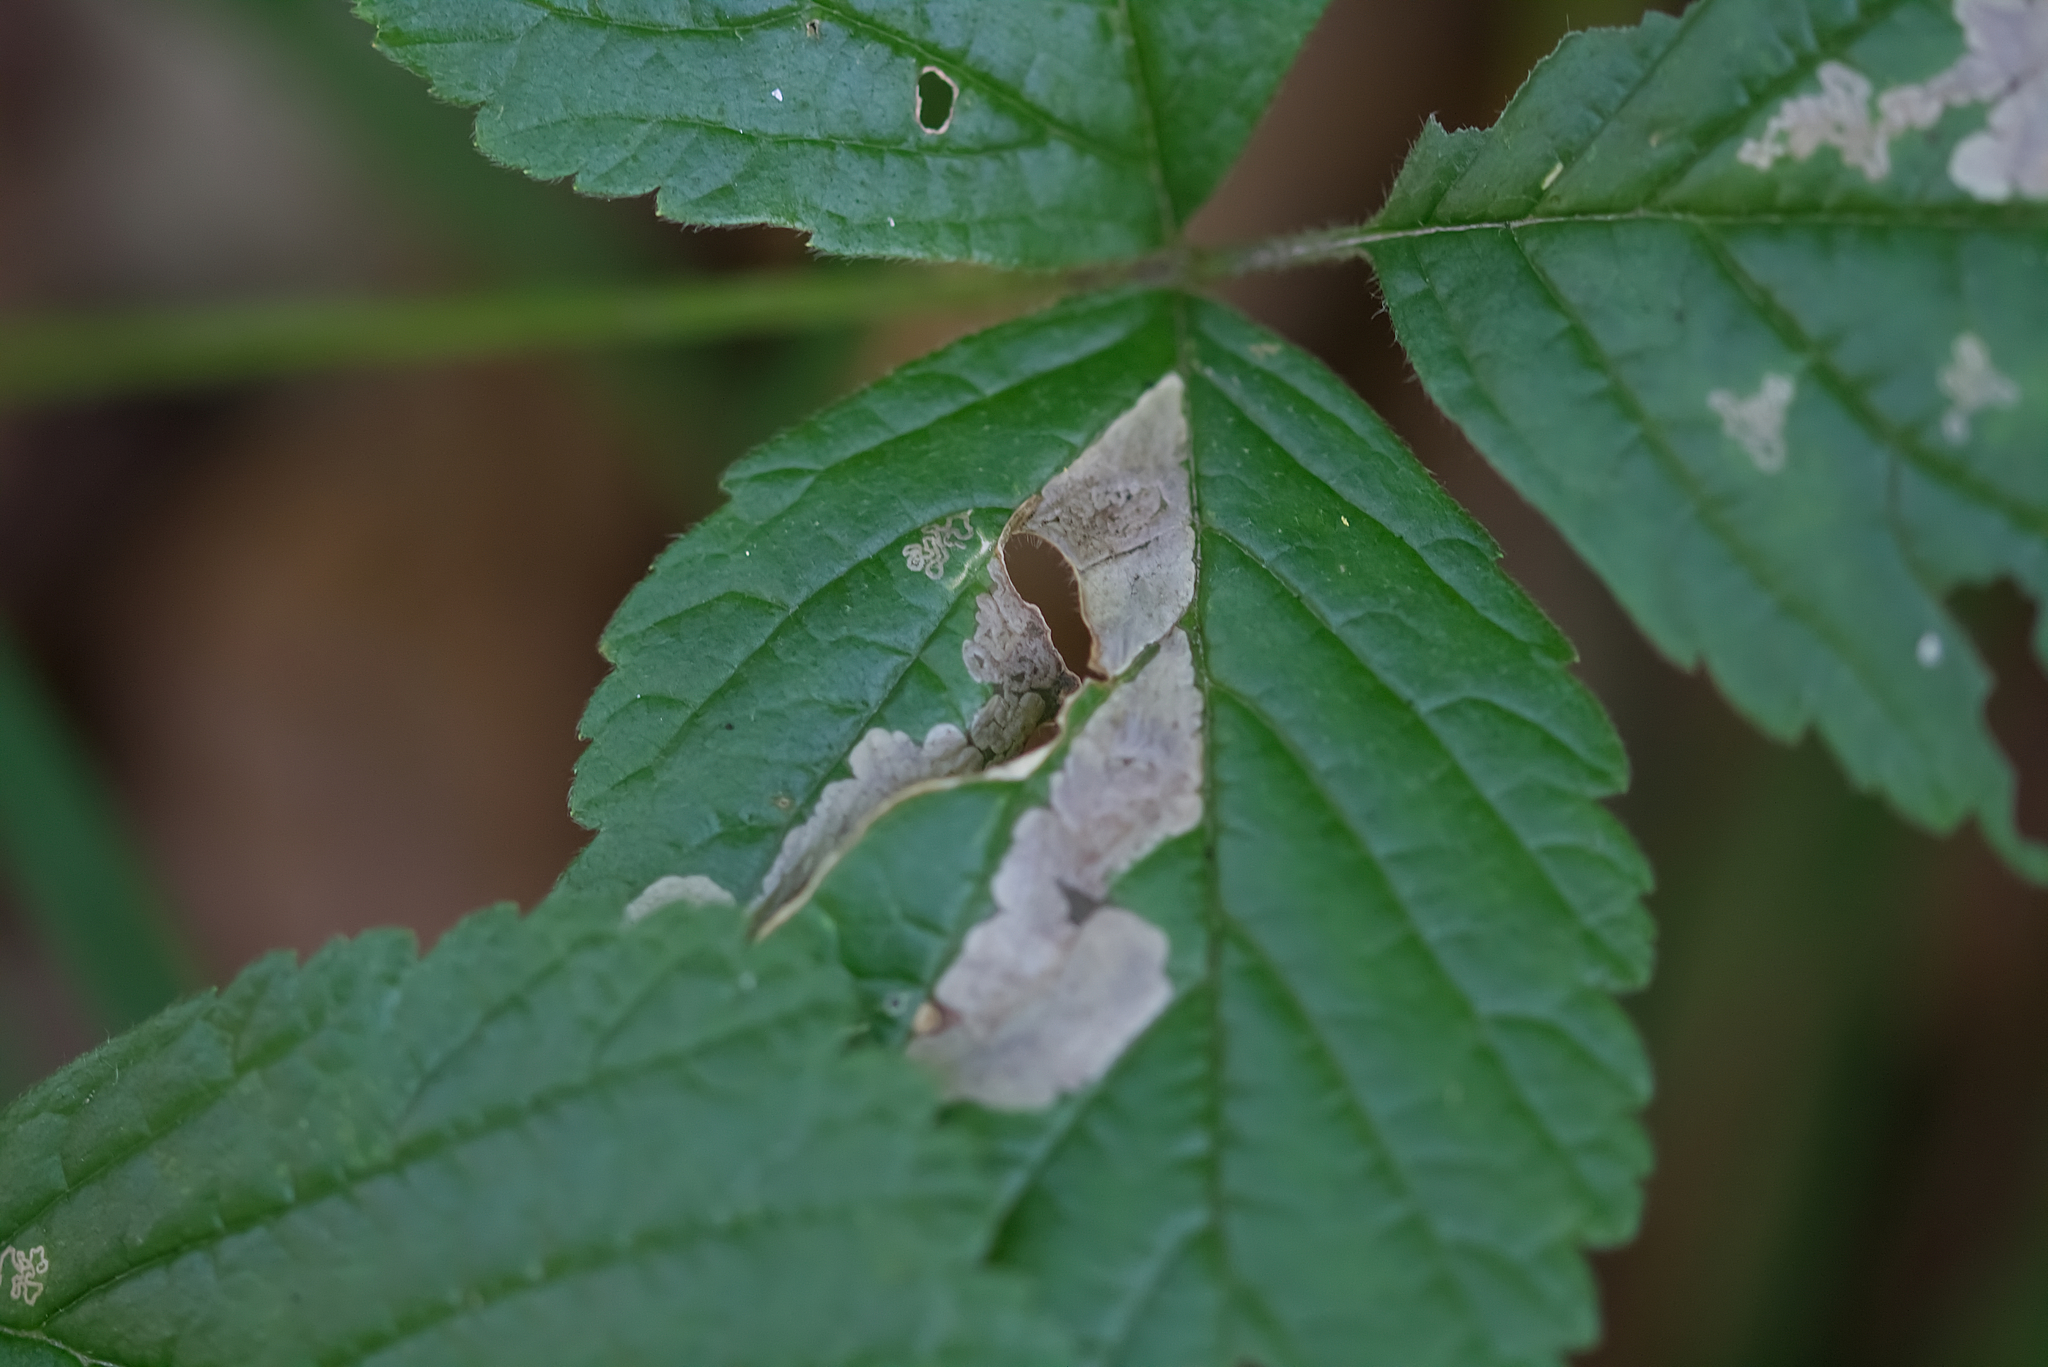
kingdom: Animalia
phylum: Arthropoda
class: Insecta
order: Lepidoptera
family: Nepticulidae
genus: Ectoedemia
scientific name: Ectoedemia rubivora
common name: Dewberry pigmy
